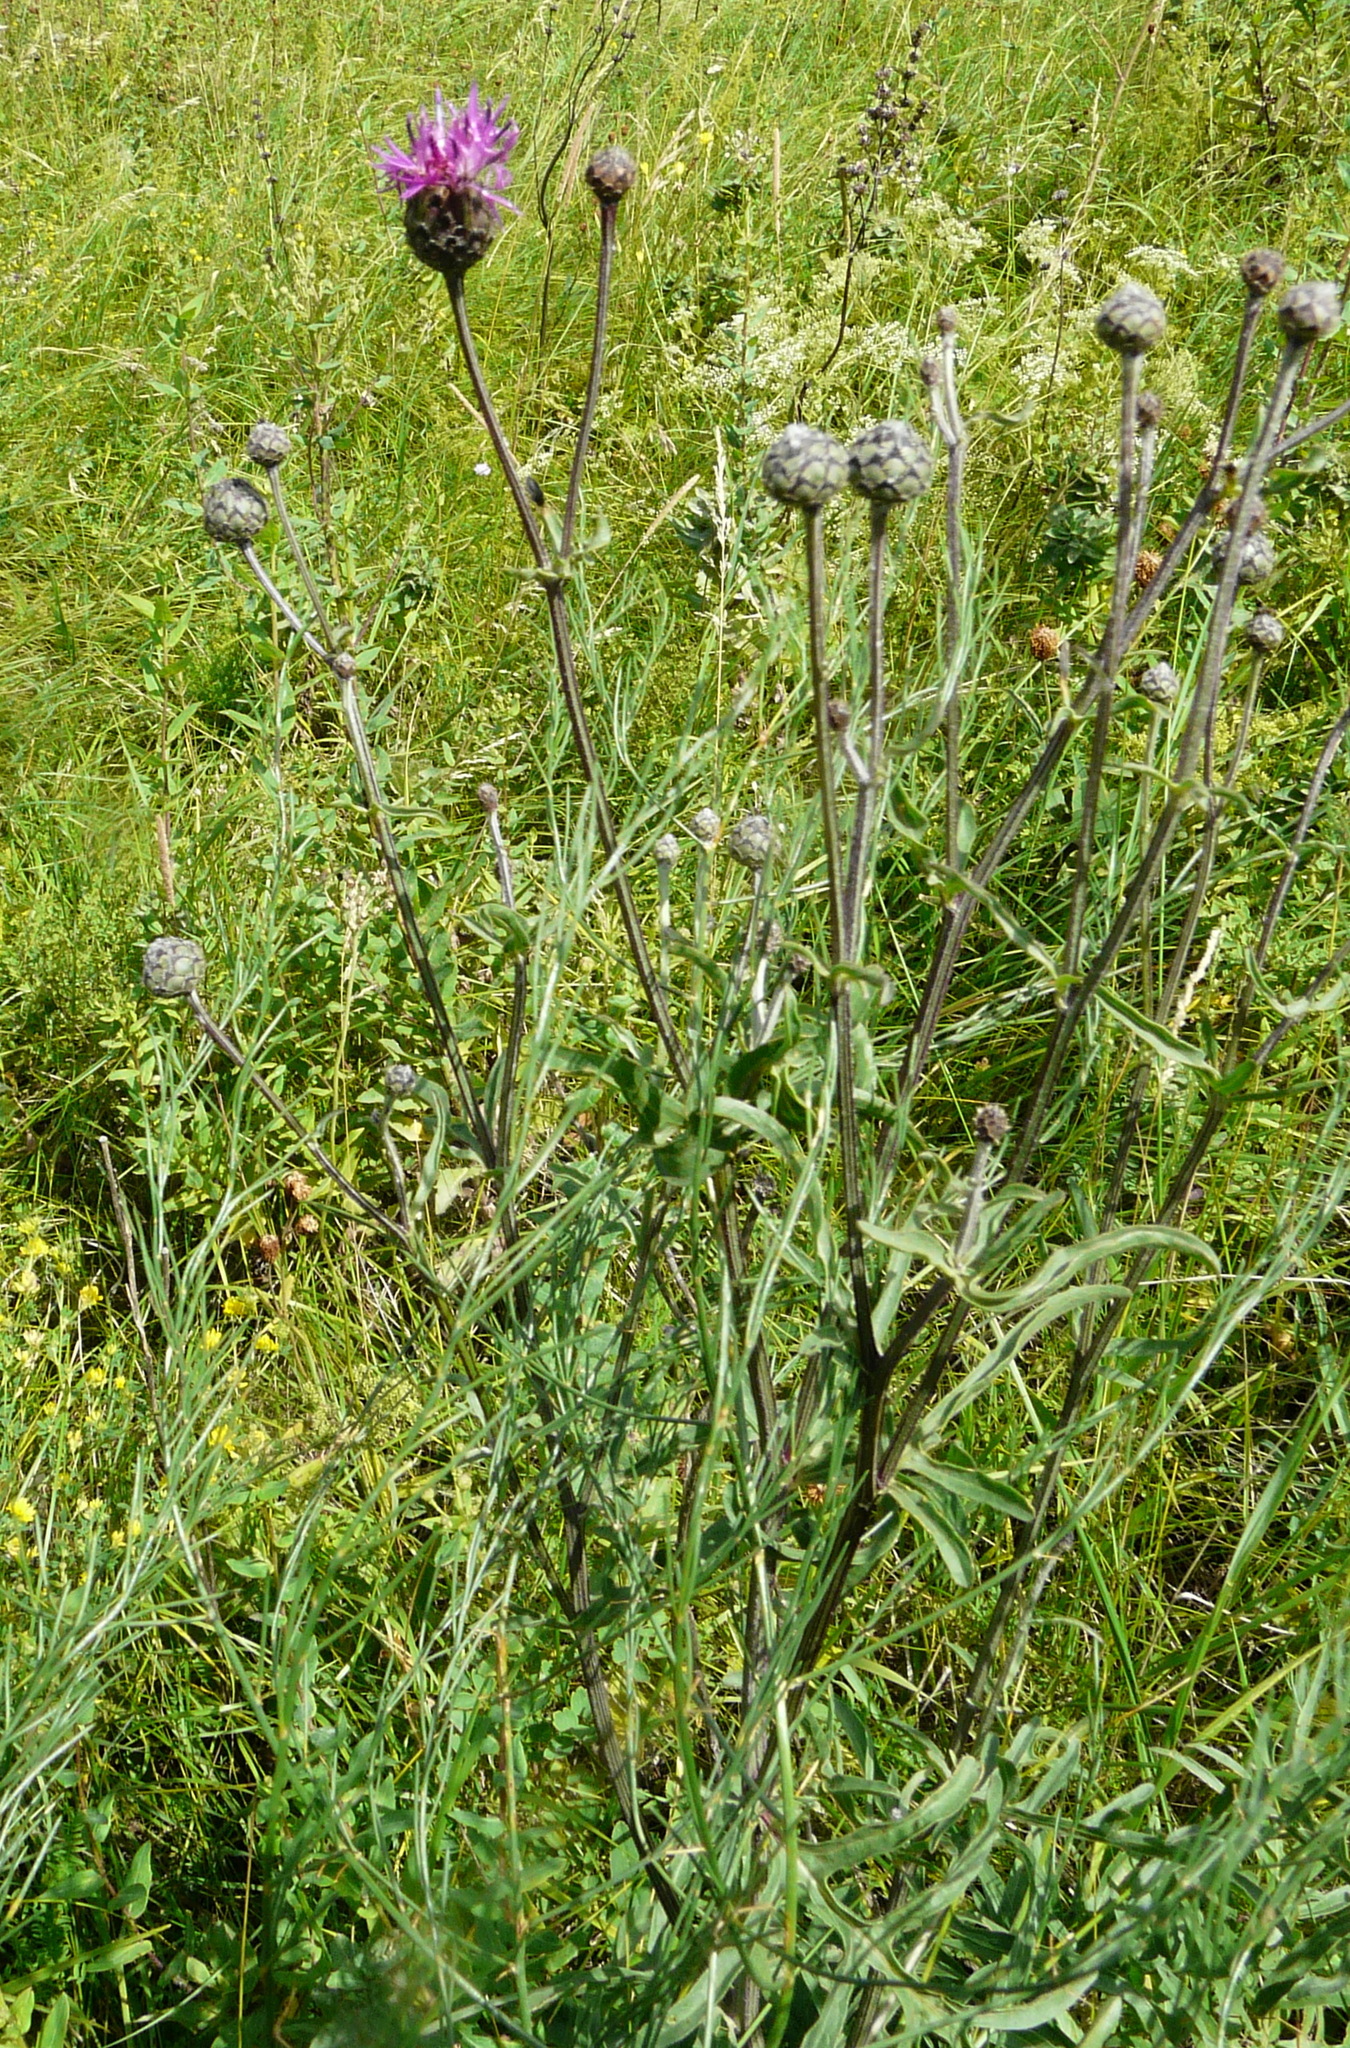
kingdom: Plantae
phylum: Tracheophyta
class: Magnoliopsida
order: Asterales
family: Asteraceae
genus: Centaurea
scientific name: Centaurea scabiosa
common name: Greater knapweed
